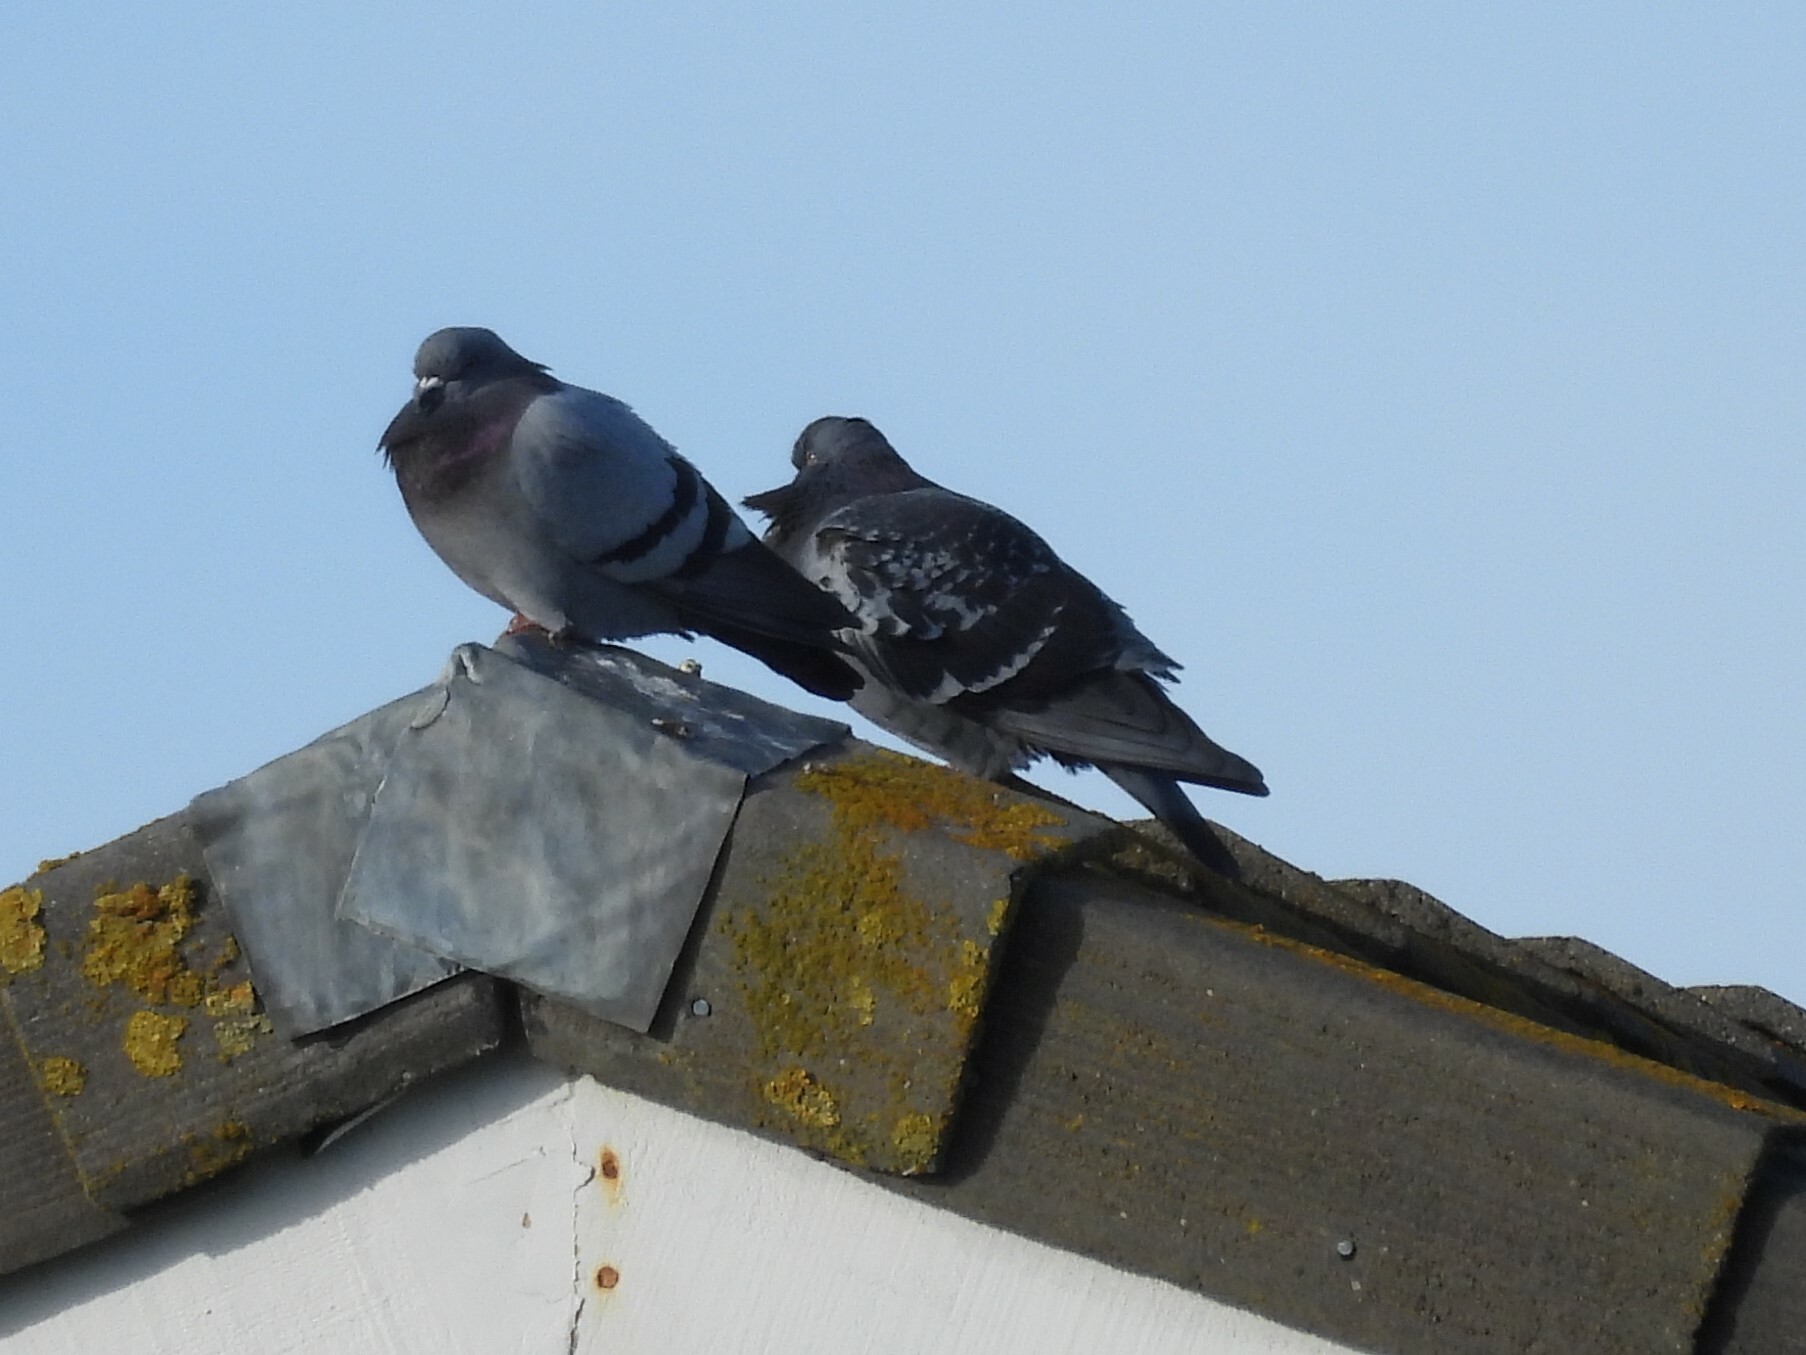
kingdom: Animalia
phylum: Chordata
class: Aves
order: Columbiformes
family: Columbidae
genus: Columba
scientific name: Columba livia
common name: Rock pigeon
